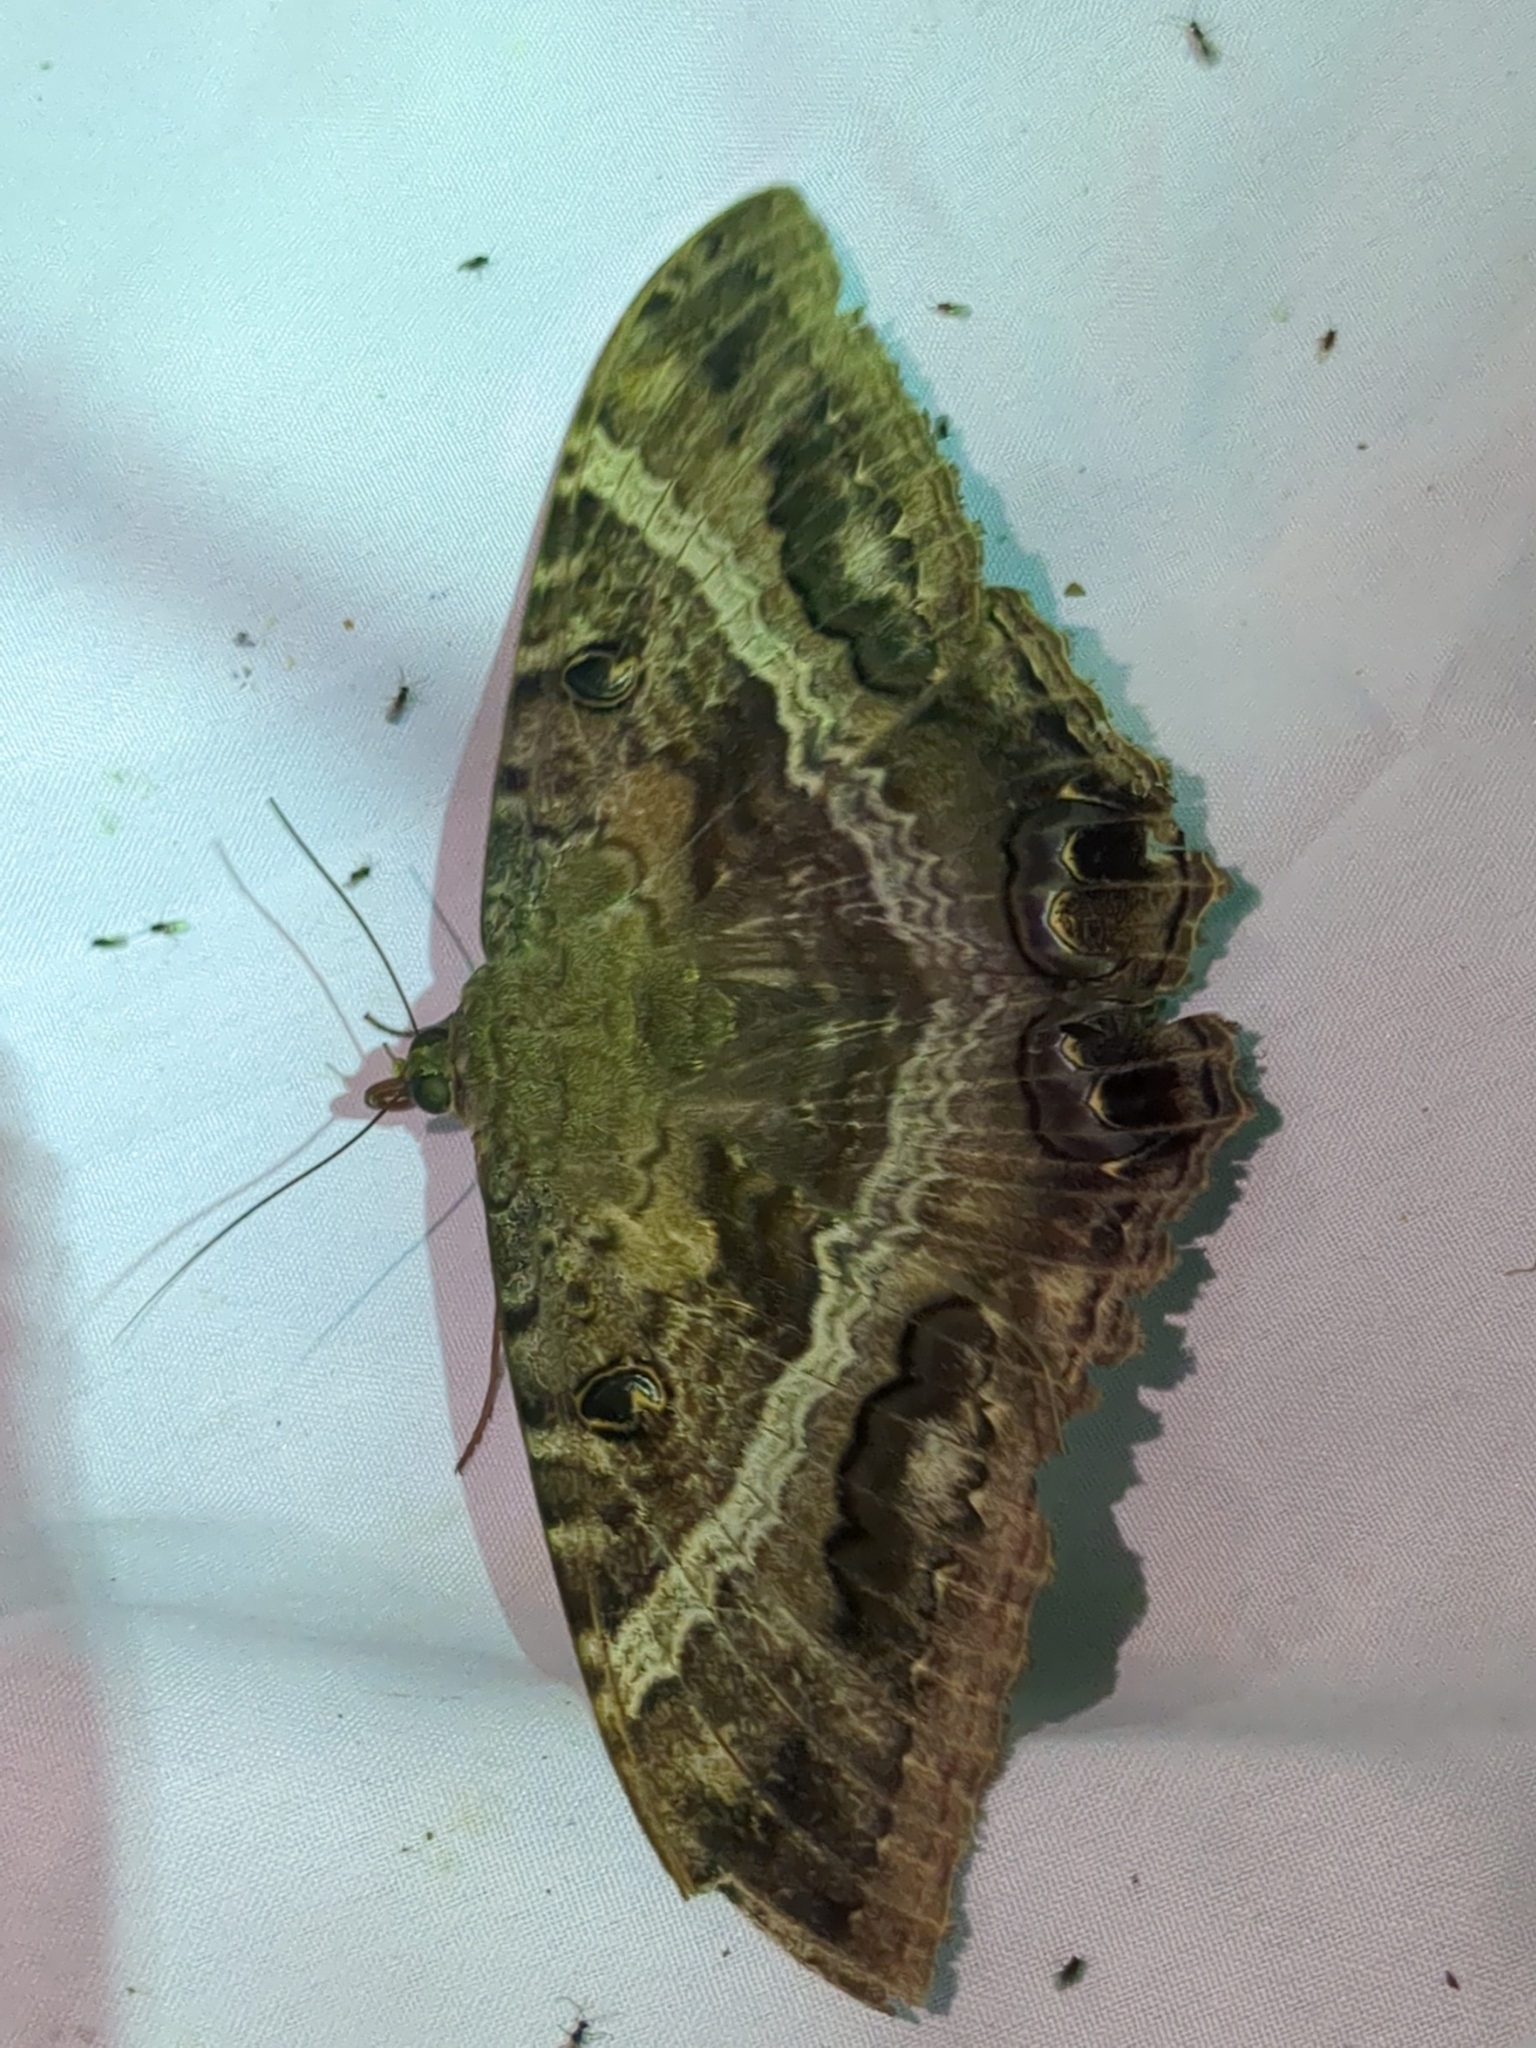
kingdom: Animalia
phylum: Arthropoda
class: Insecta
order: Lepidoptera
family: Erebidae
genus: Ascalapha
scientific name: Ascalapha odorata
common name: Black witch
